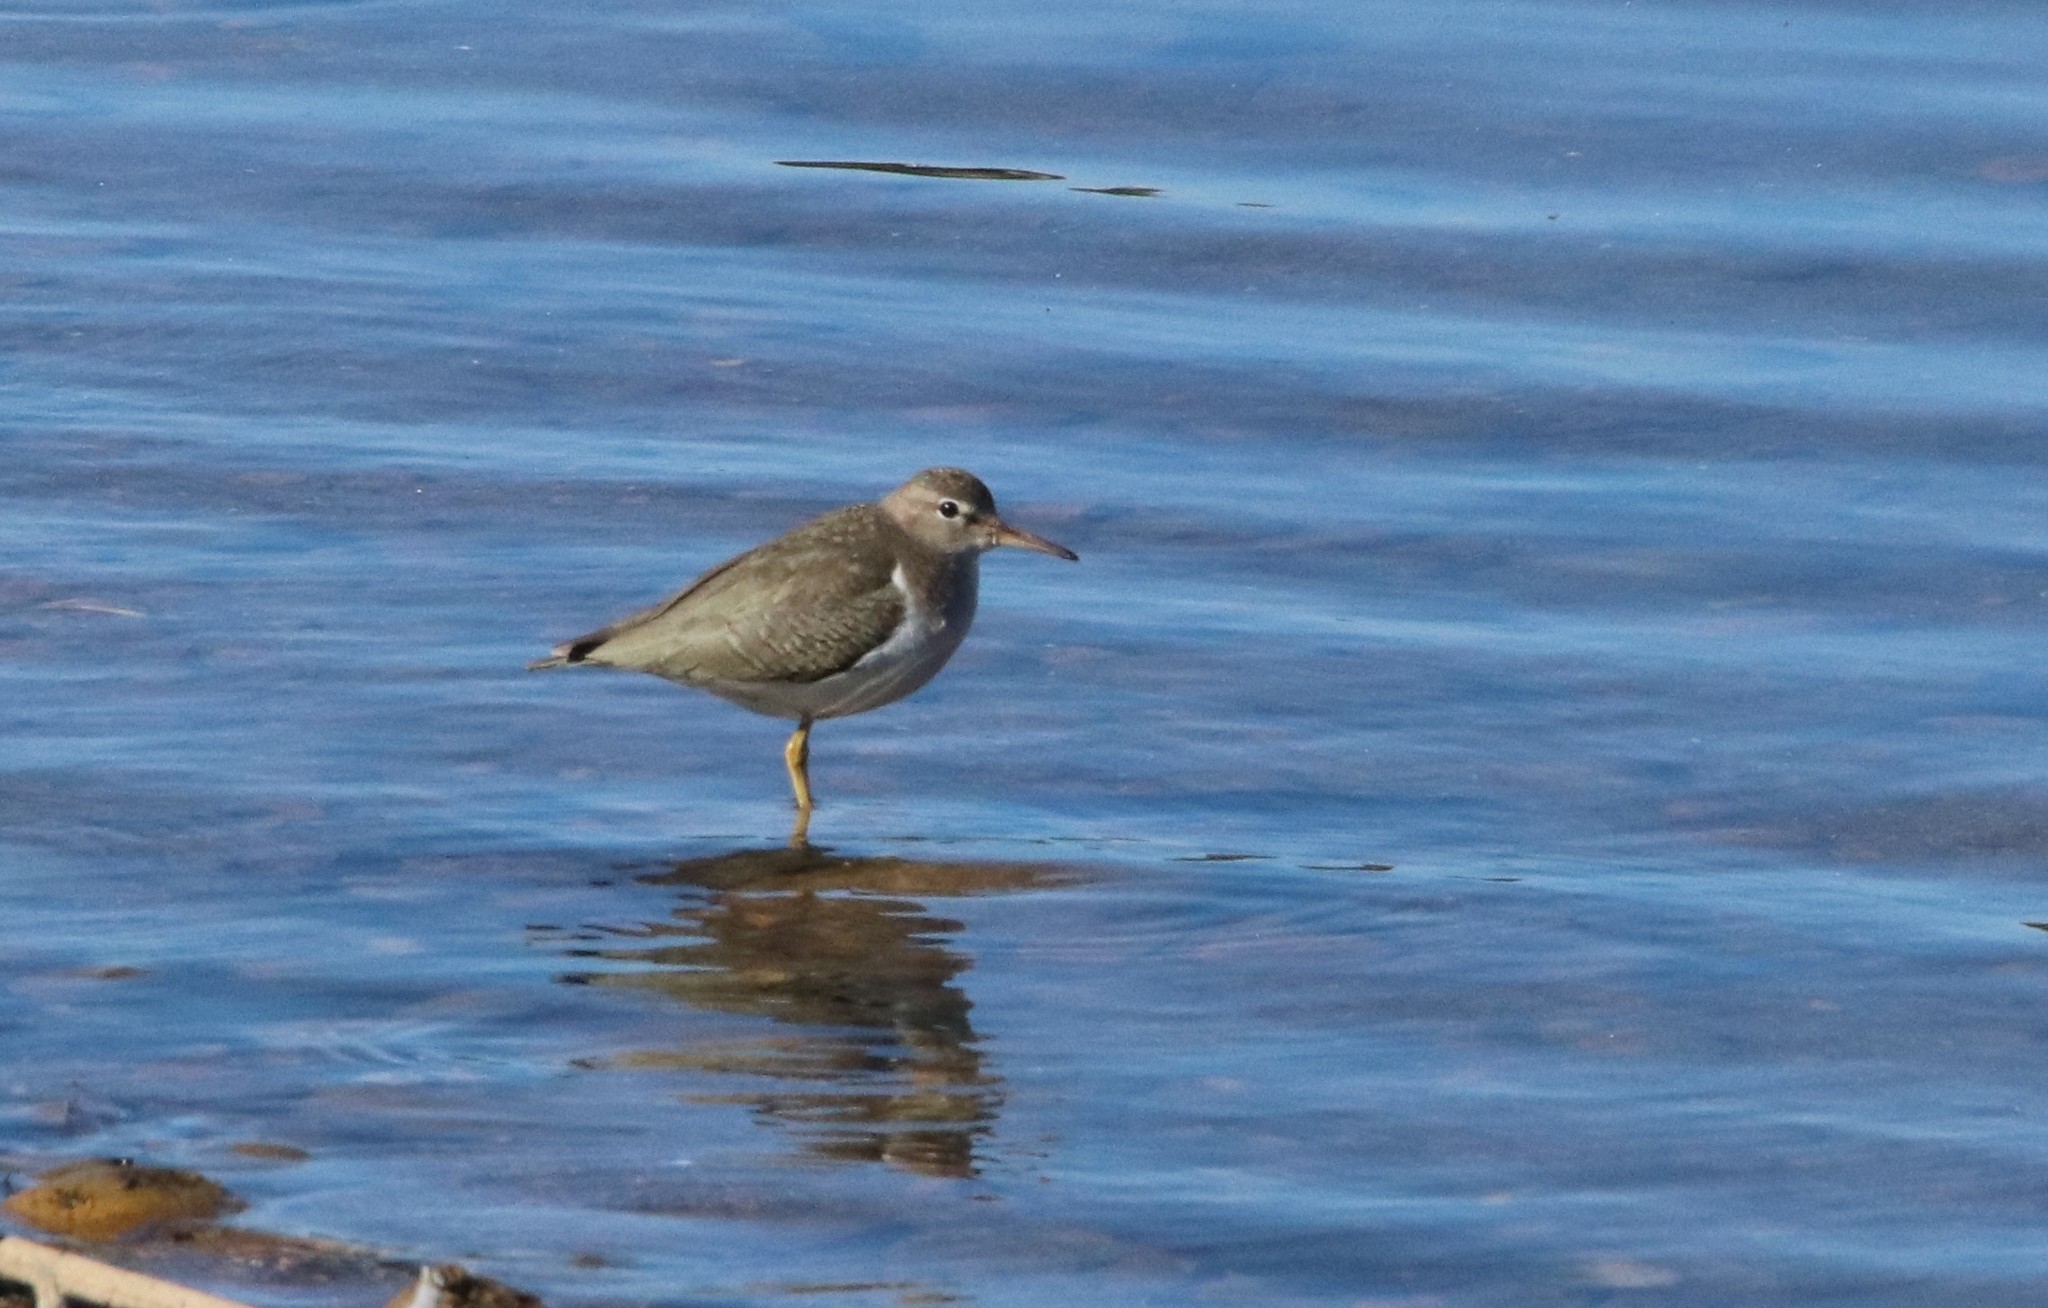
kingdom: Animalia
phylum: Chordata
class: Aves
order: Charadriiformes
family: Scolopacidae
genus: Actitis
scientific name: Actitis macularius
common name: Spotted sandpiper
